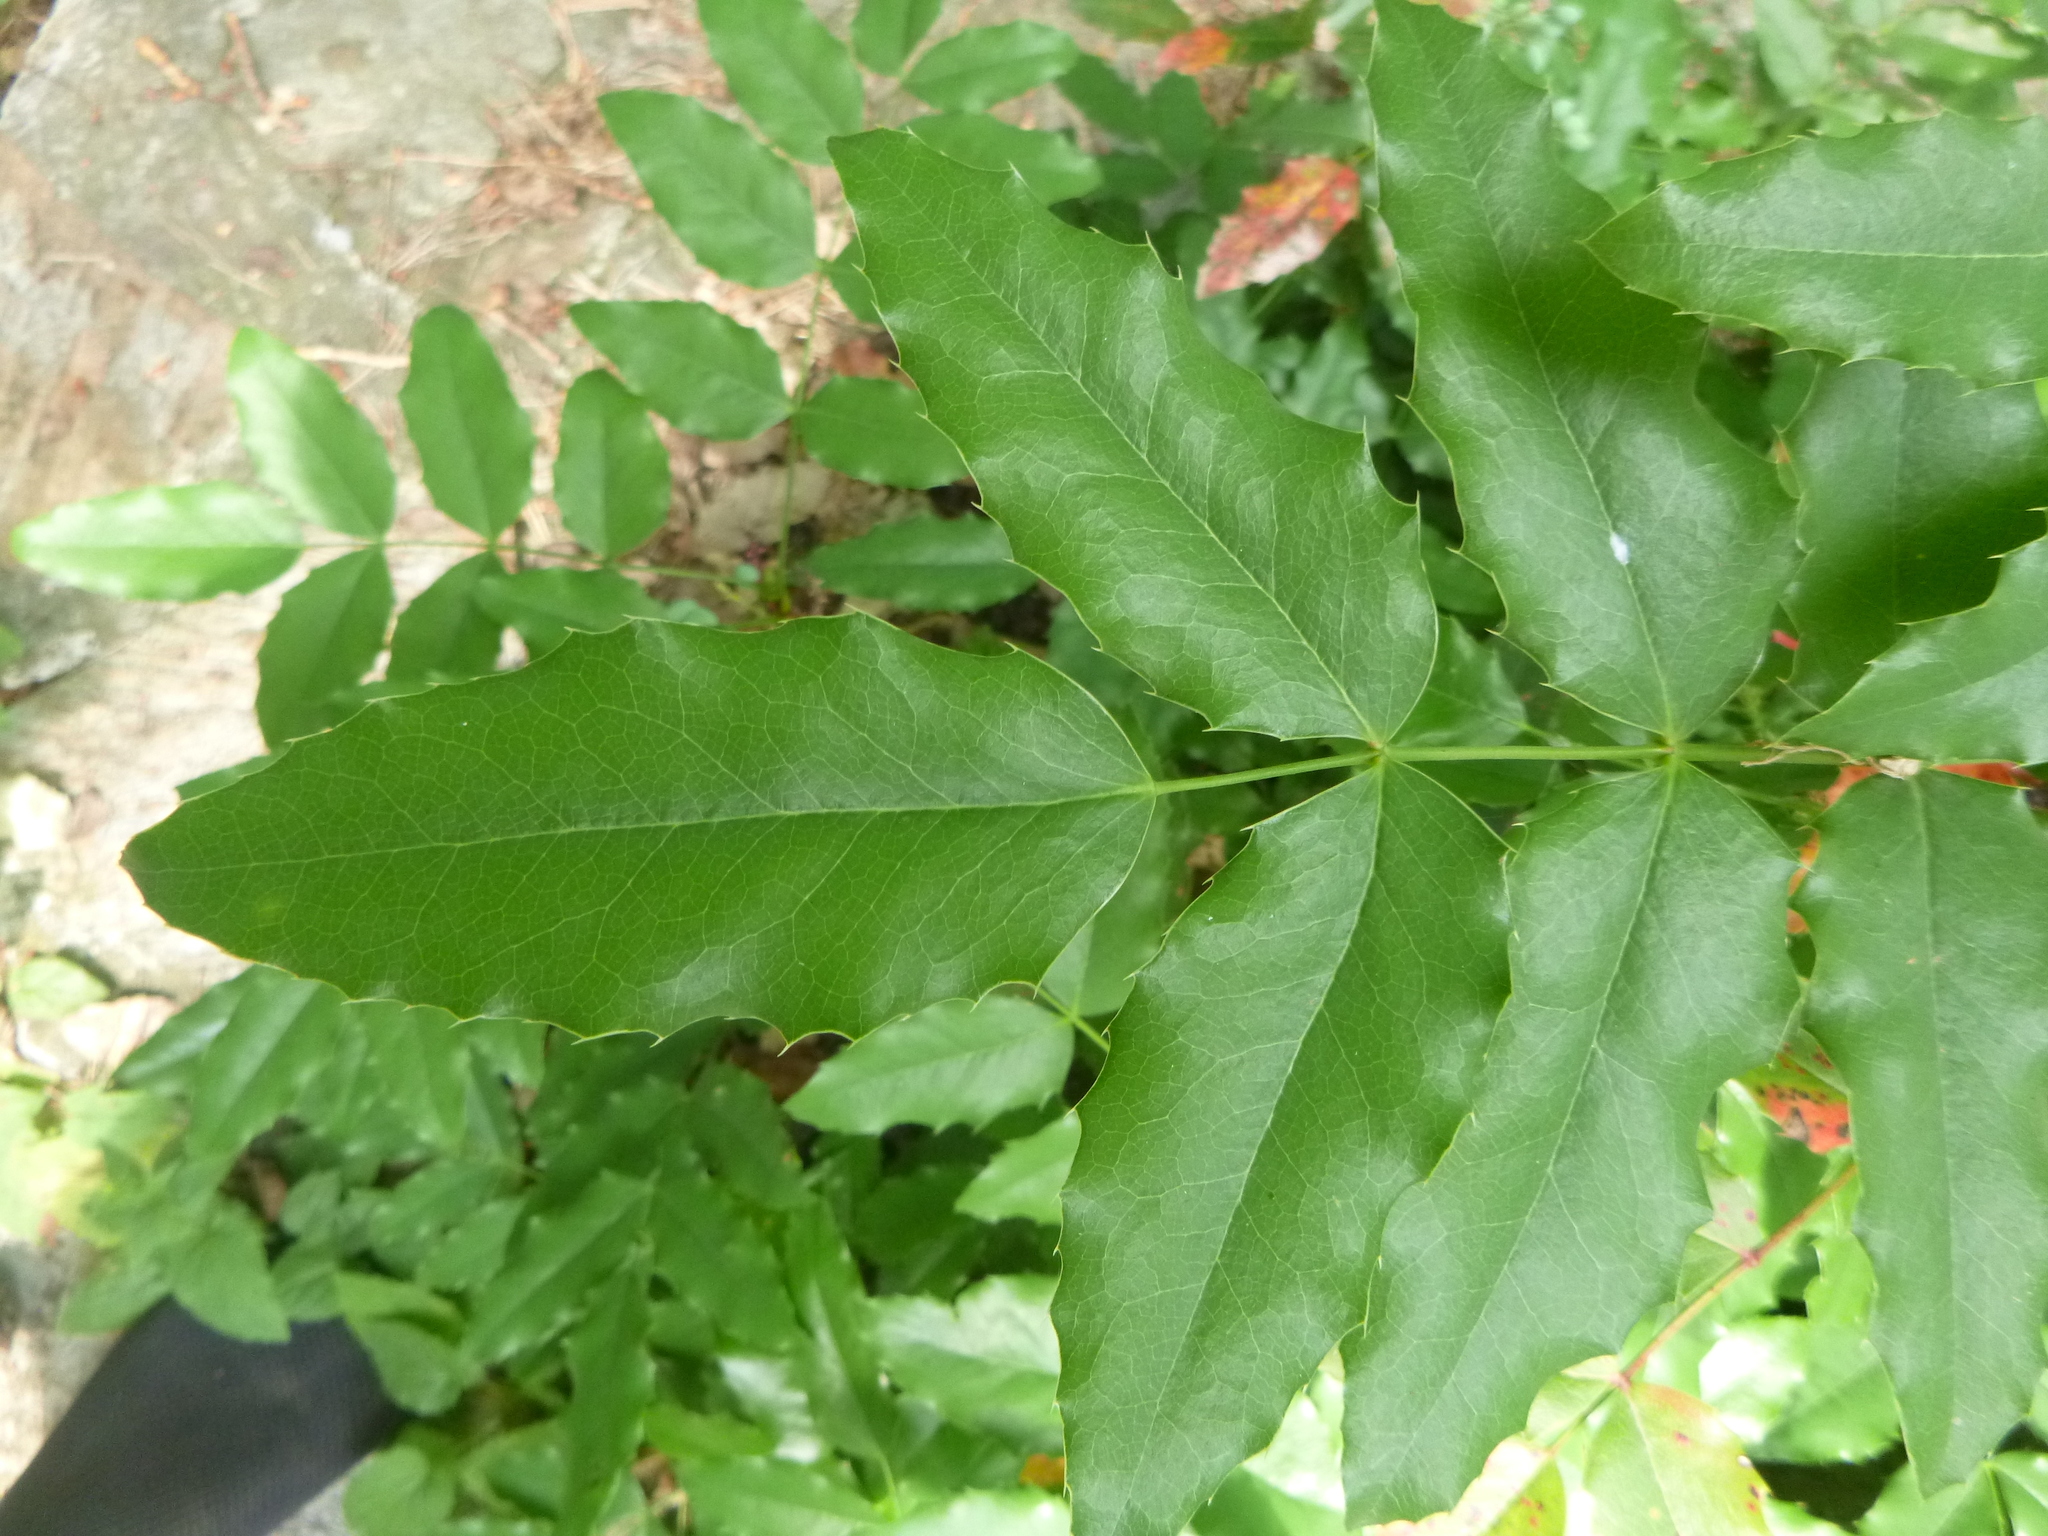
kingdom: Plantae
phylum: Tracheophyta
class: Magnoliopsida
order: Ranunculales
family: Berberidaceae
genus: Mahonia
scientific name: Mahonia aquifolium
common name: Oregon-grape
